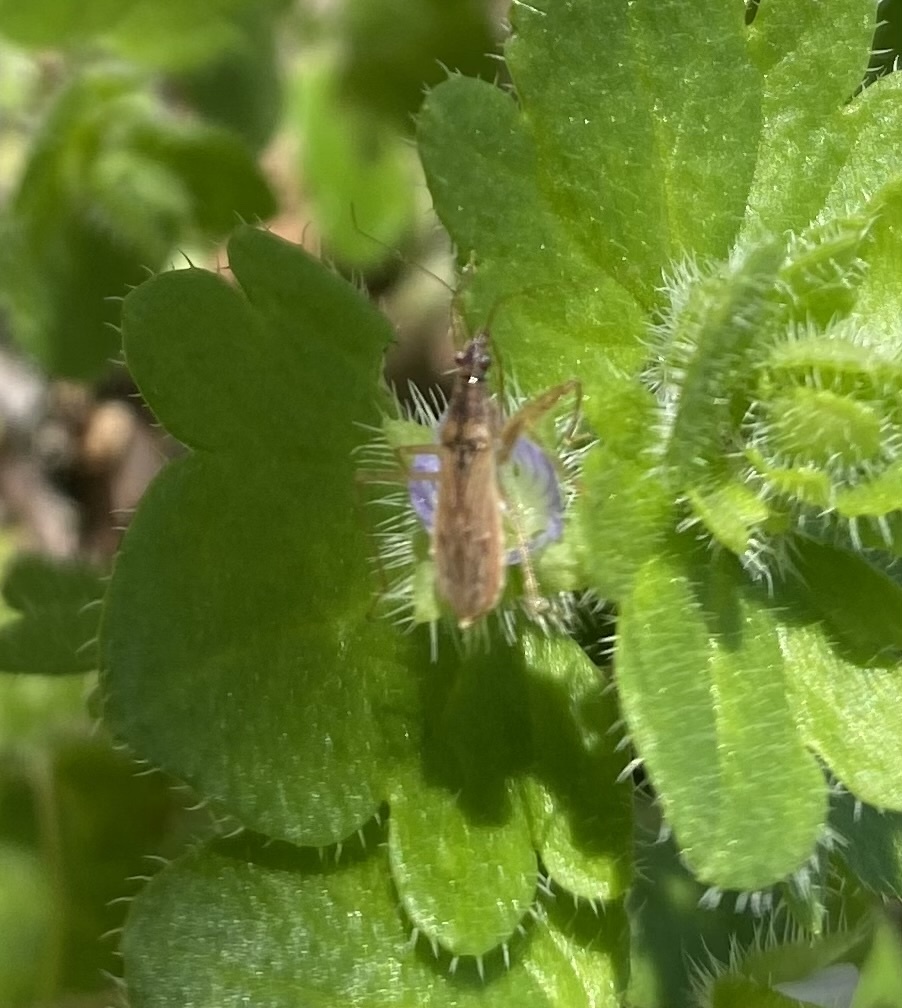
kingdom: Animalia
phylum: Arthropoda
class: Insecta
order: Hemiptera
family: Nabidae
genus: Nabis
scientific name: Nabis
